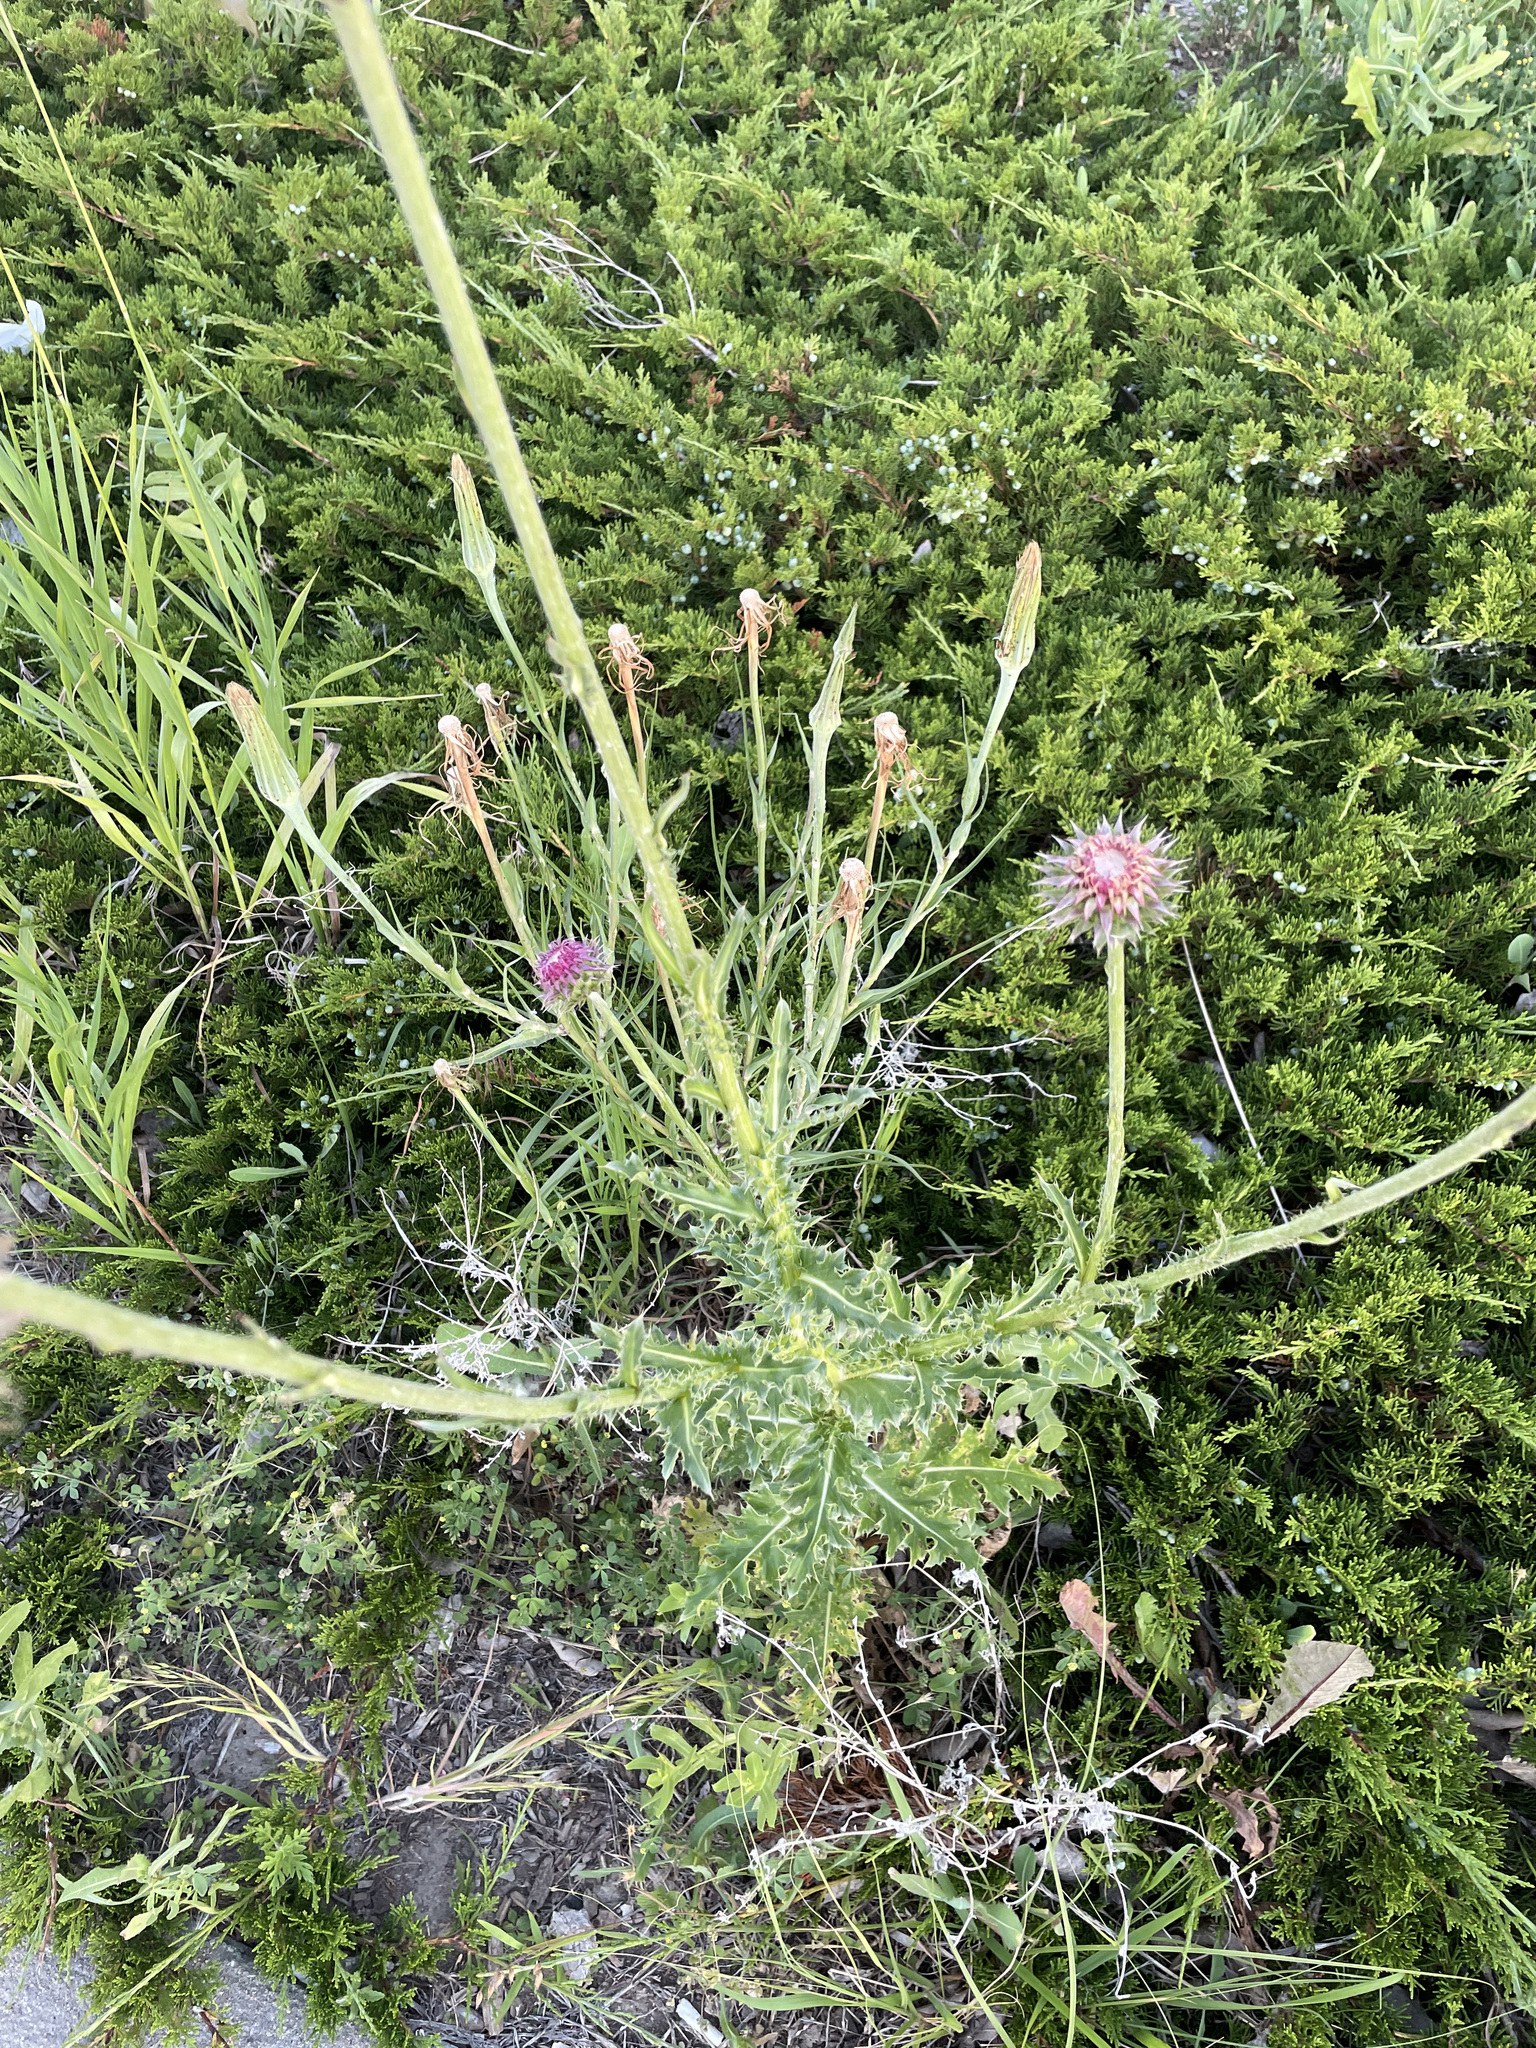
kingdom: Plantae
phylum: Tracheophyta
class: Magnoliopsida
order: Asterales
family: Asteraceae
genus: Carduus
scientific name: Carduus nutans
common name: Musk thistle
